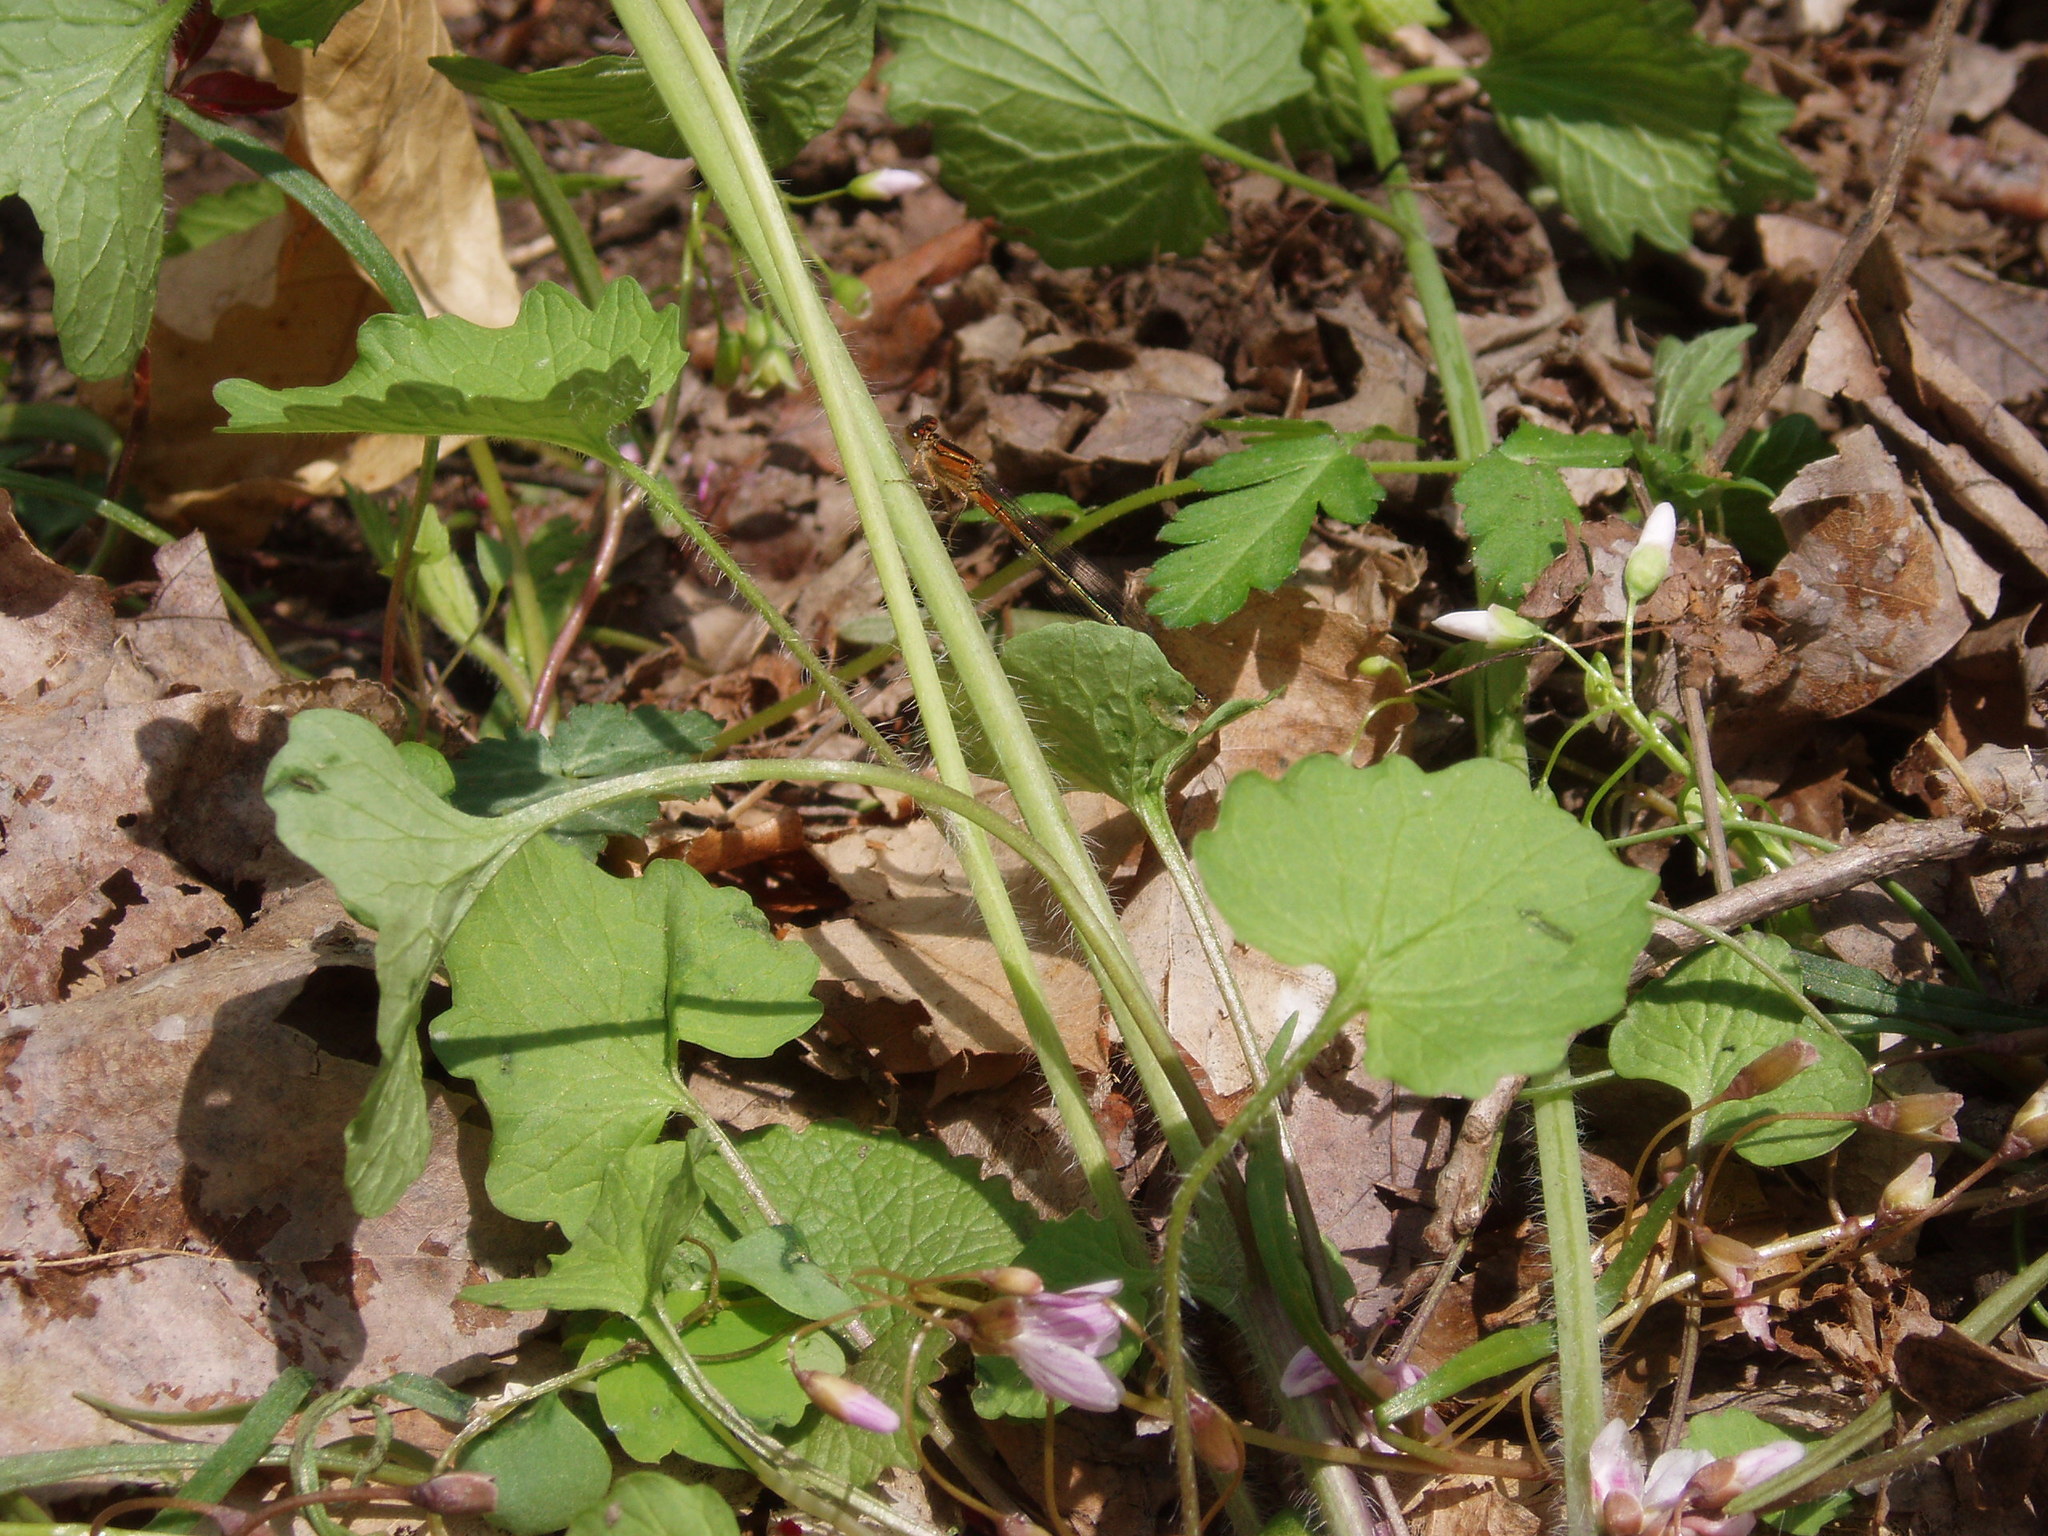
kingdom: Animalia
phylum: Arthropoda
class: Insecta
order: Odonata
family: Coenagrionidae
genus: Ischnura
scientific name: Ischnura verticalis
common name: Eastern forktail
